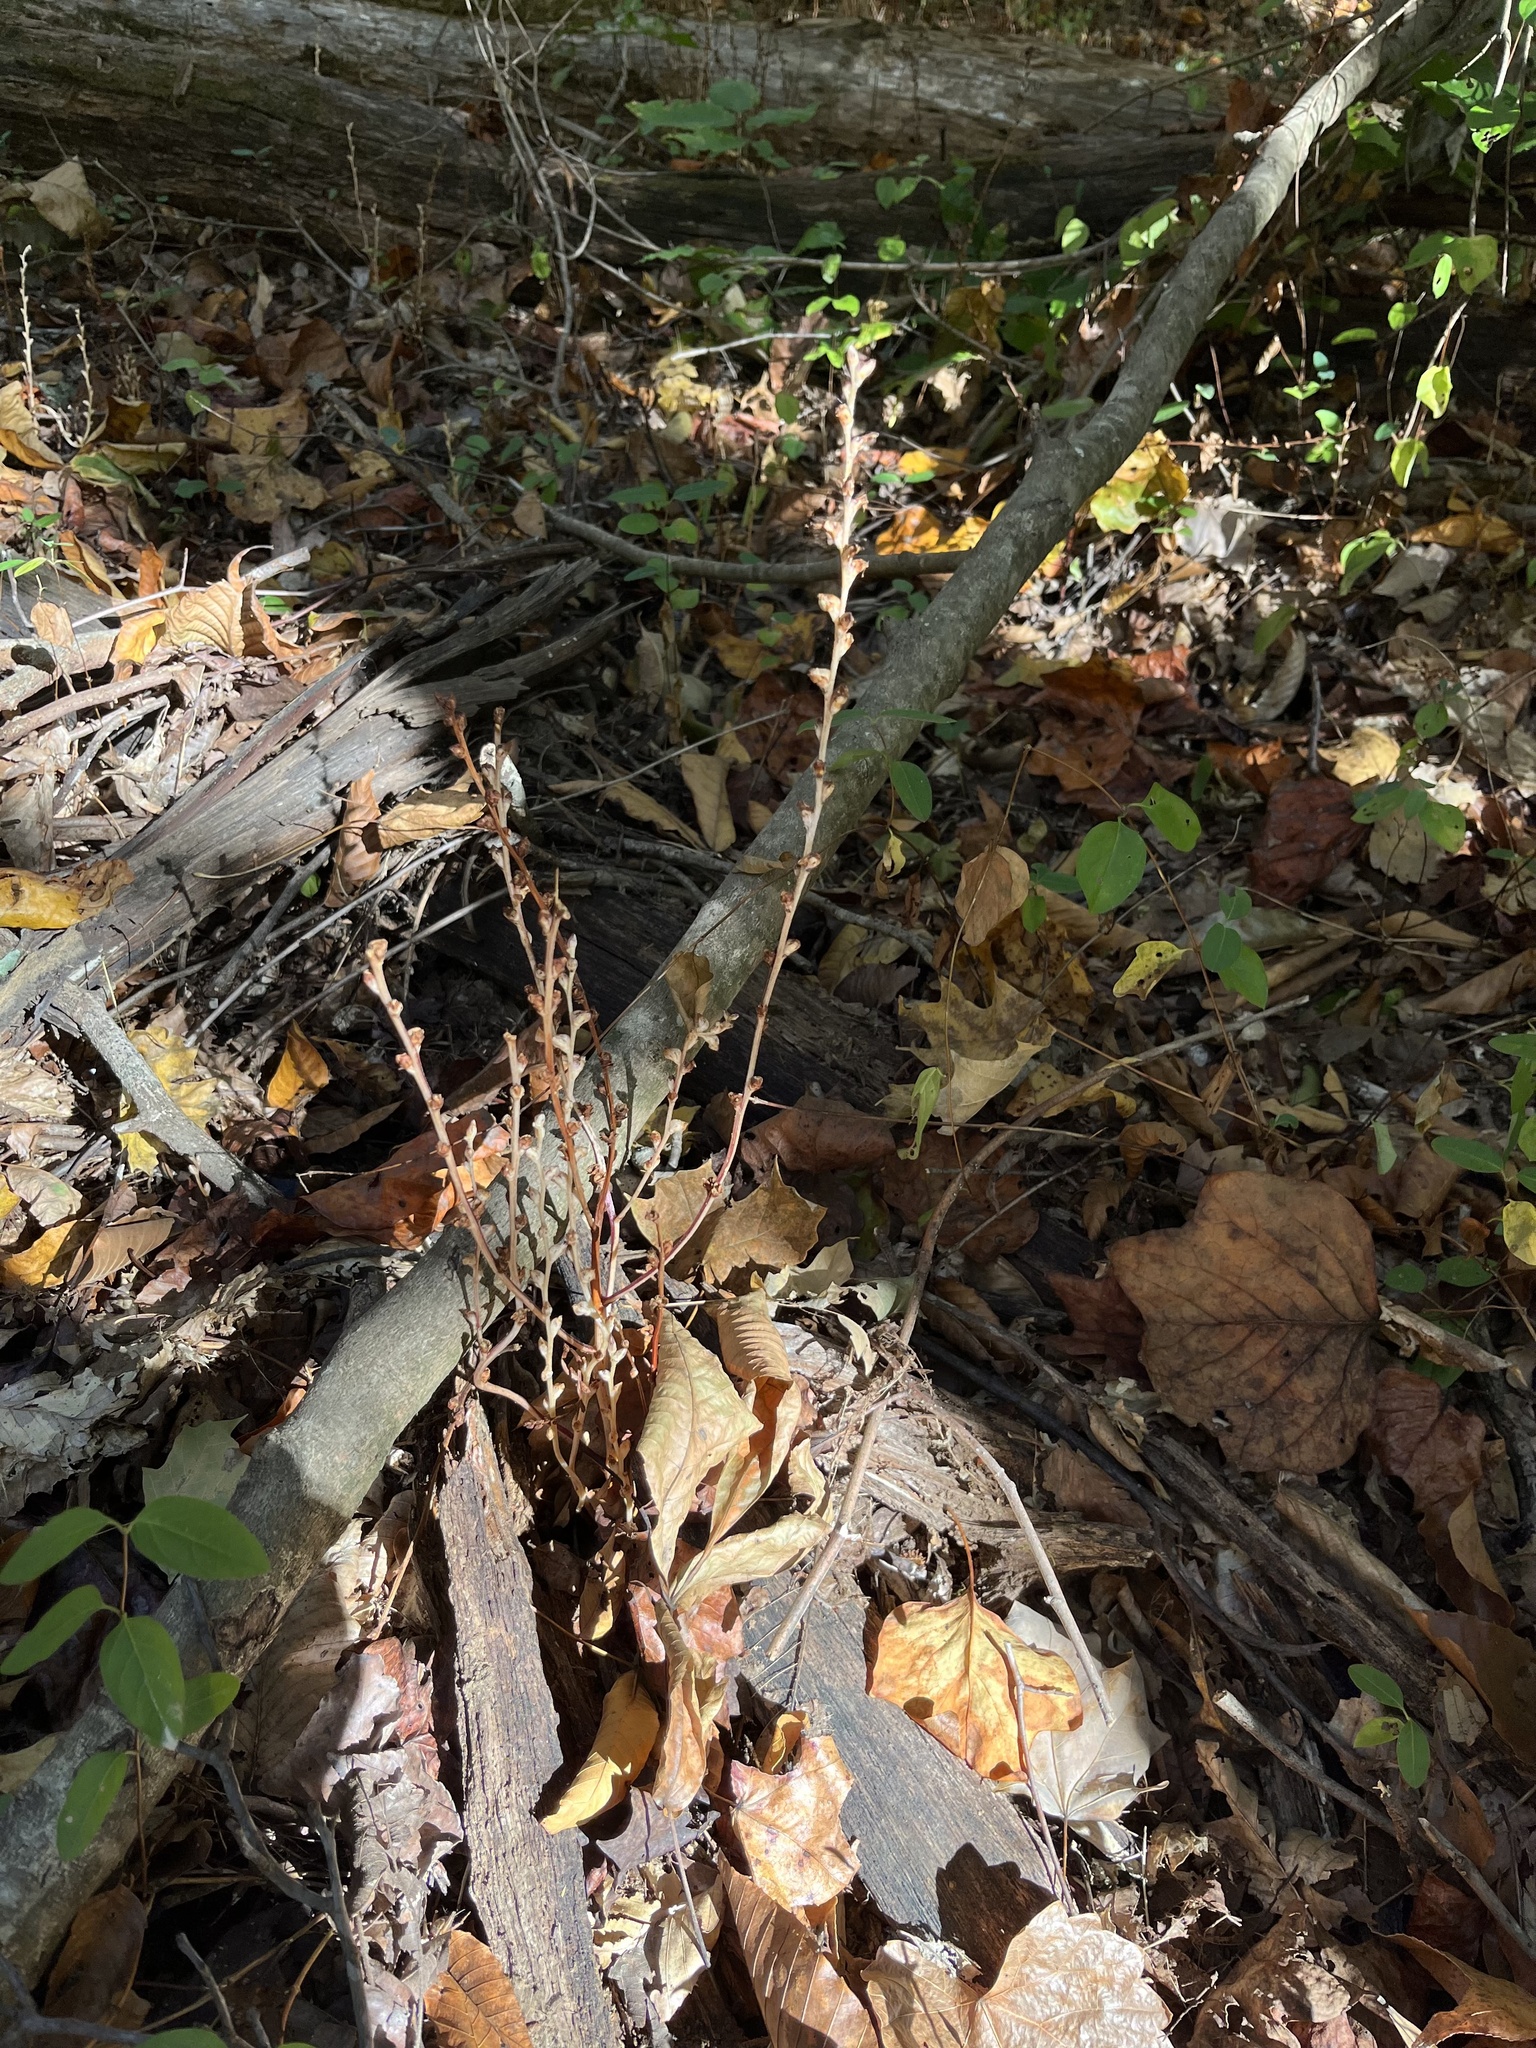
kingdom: Plantae
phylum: Tracheophyta
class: Magnoliopsida
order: Lamiales
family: Orobanchaceae
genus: Epifagus
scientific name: Epifagus virginiana
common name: Beechdrops
